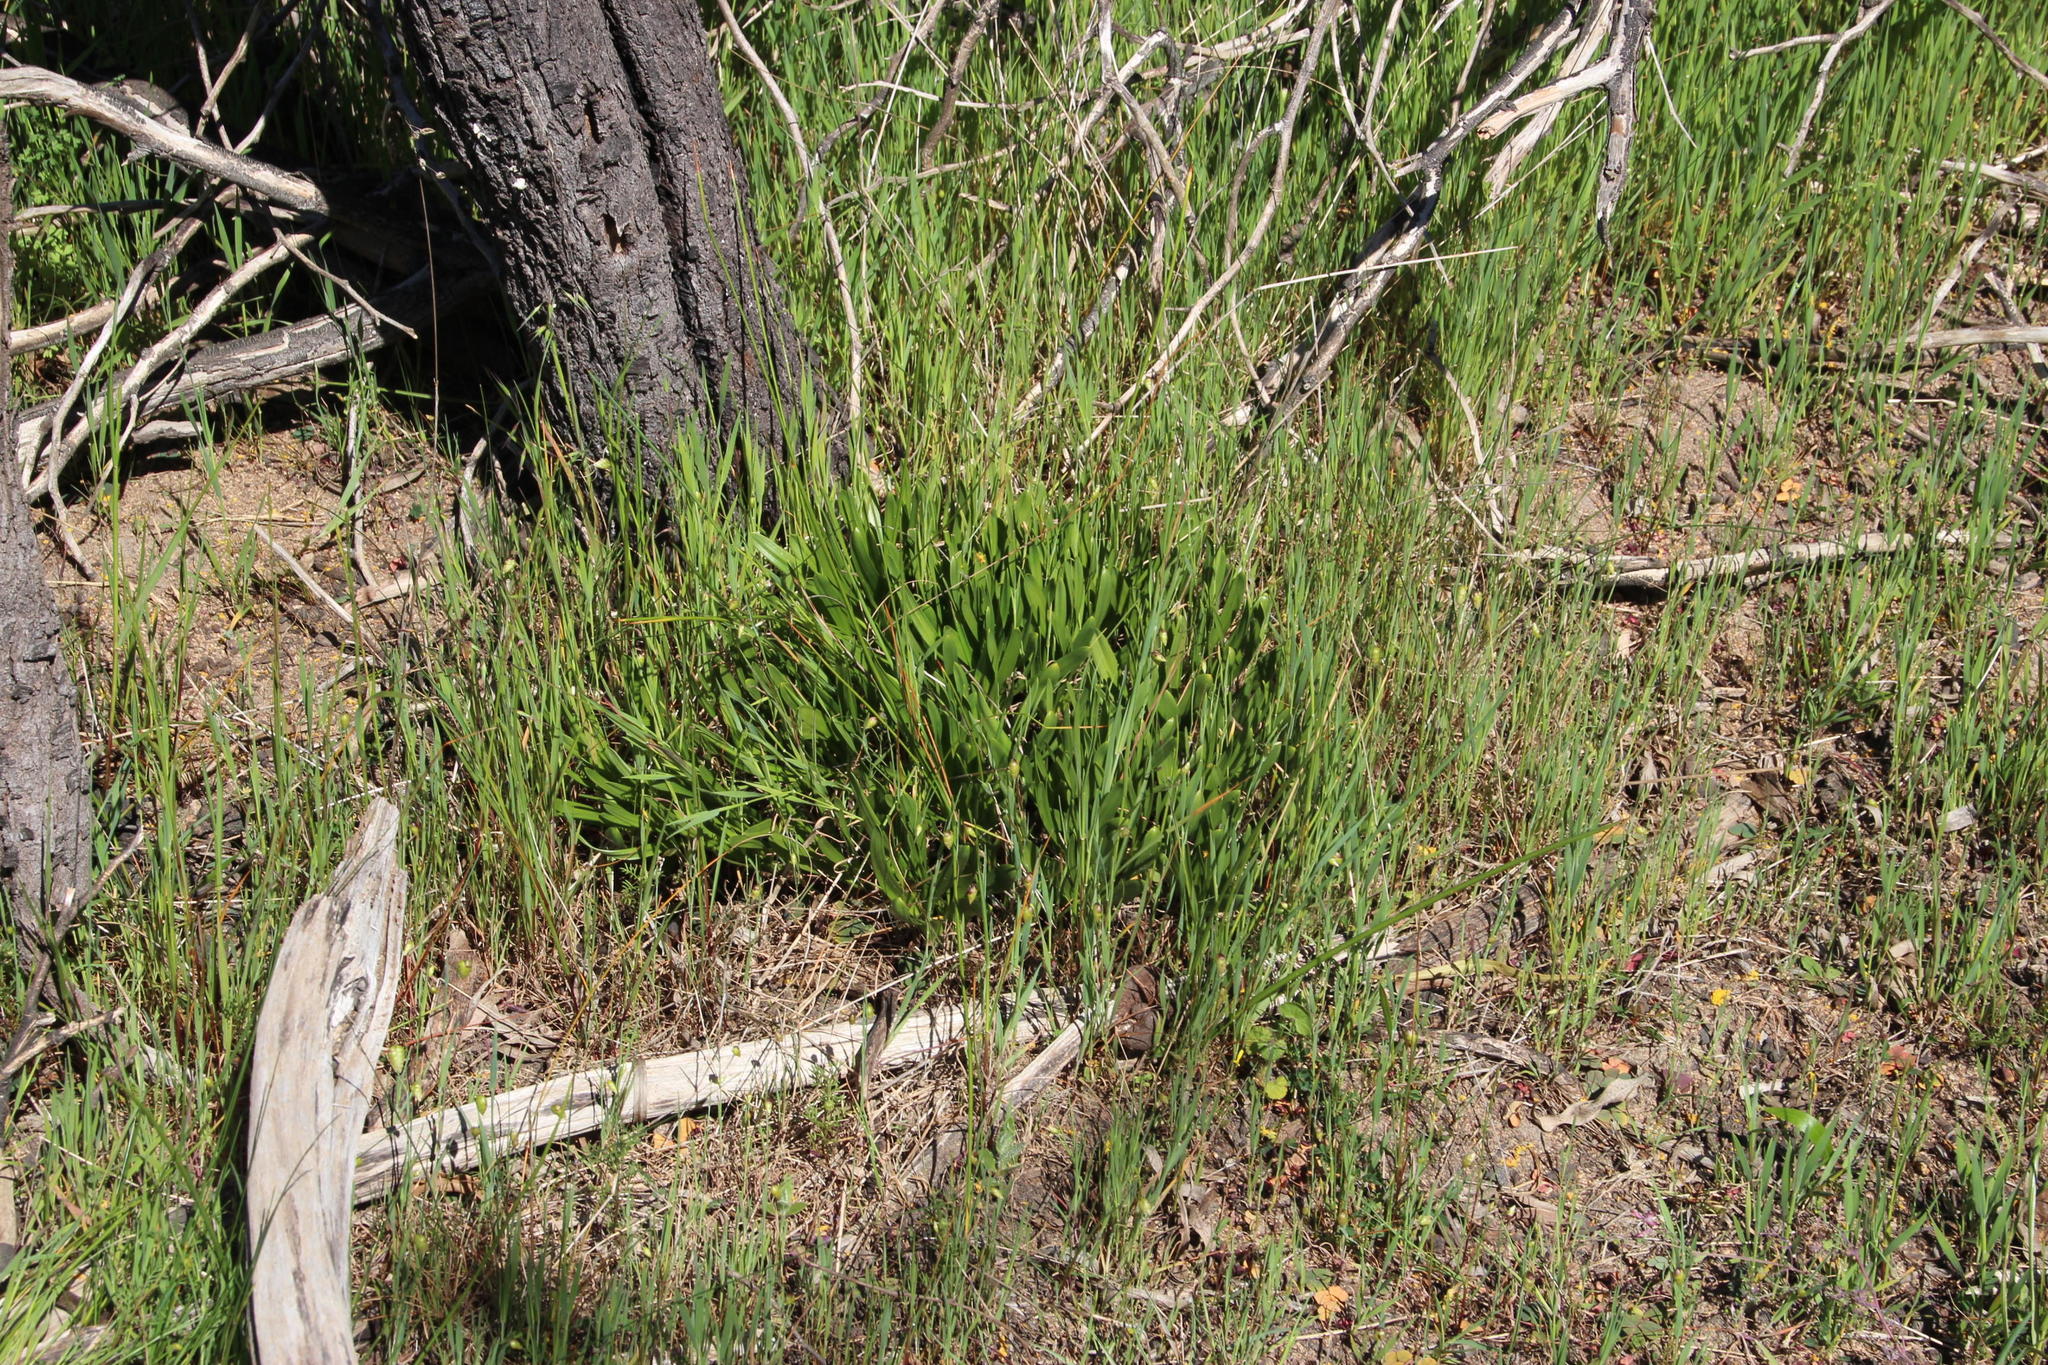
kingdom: Plantae
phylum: Tracheophyta
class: Liliopsida
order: Asparagales
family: Asparagaceae
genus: Fusifilum
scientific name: Fusifilum physodes
